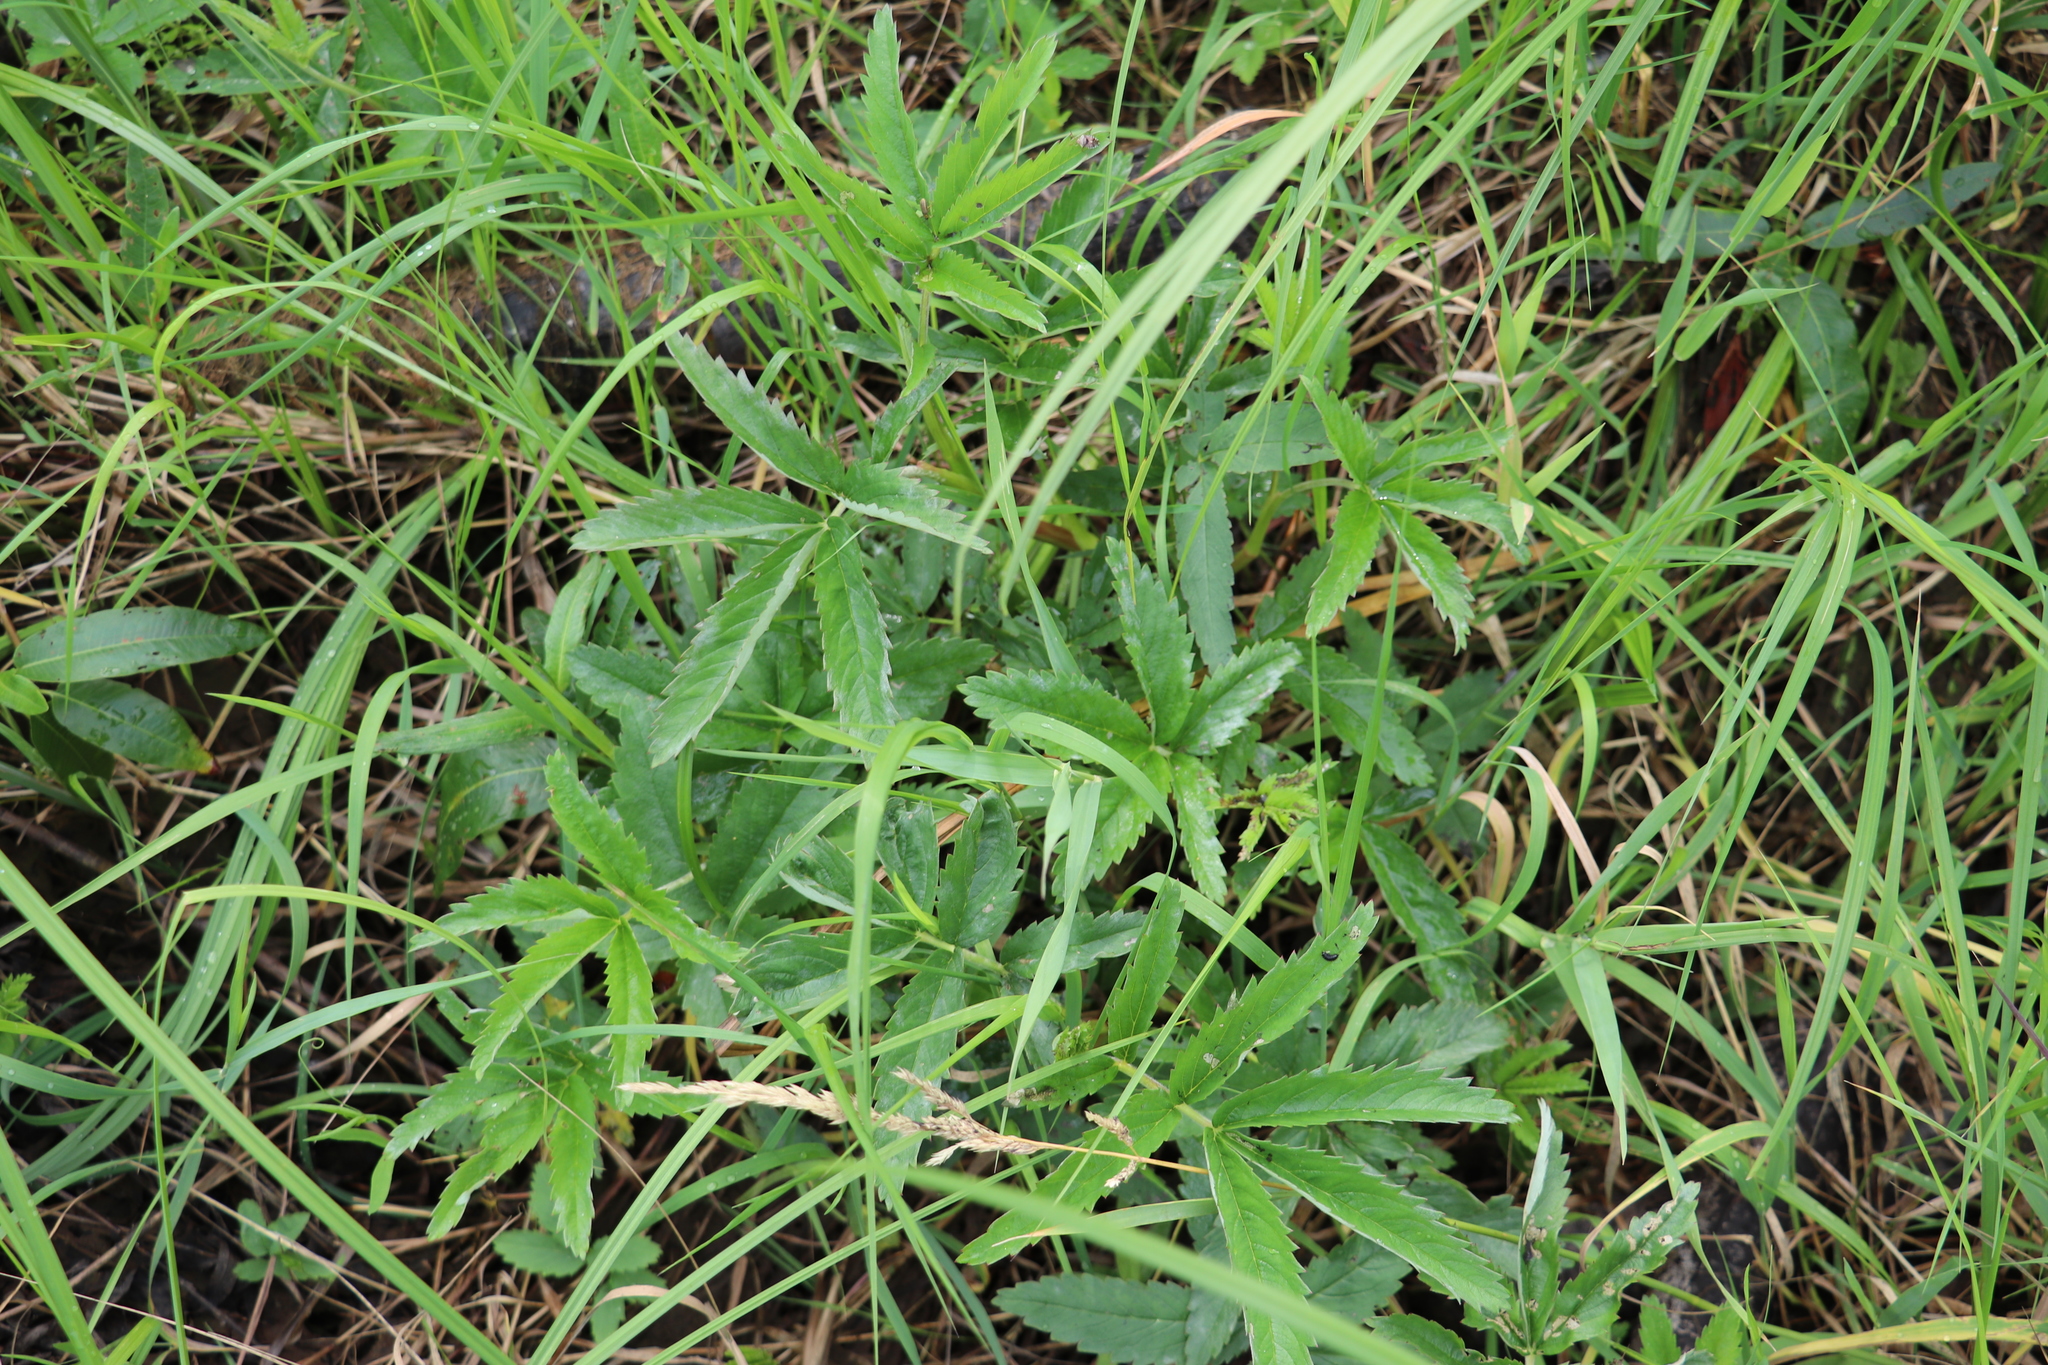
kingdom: Plantae
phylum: Tracheophyta
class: Magnoliopsida
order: Rosales
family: Rosaceae
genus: Comarum
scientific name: Comarum palustre
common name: Marsh cinquefoil
